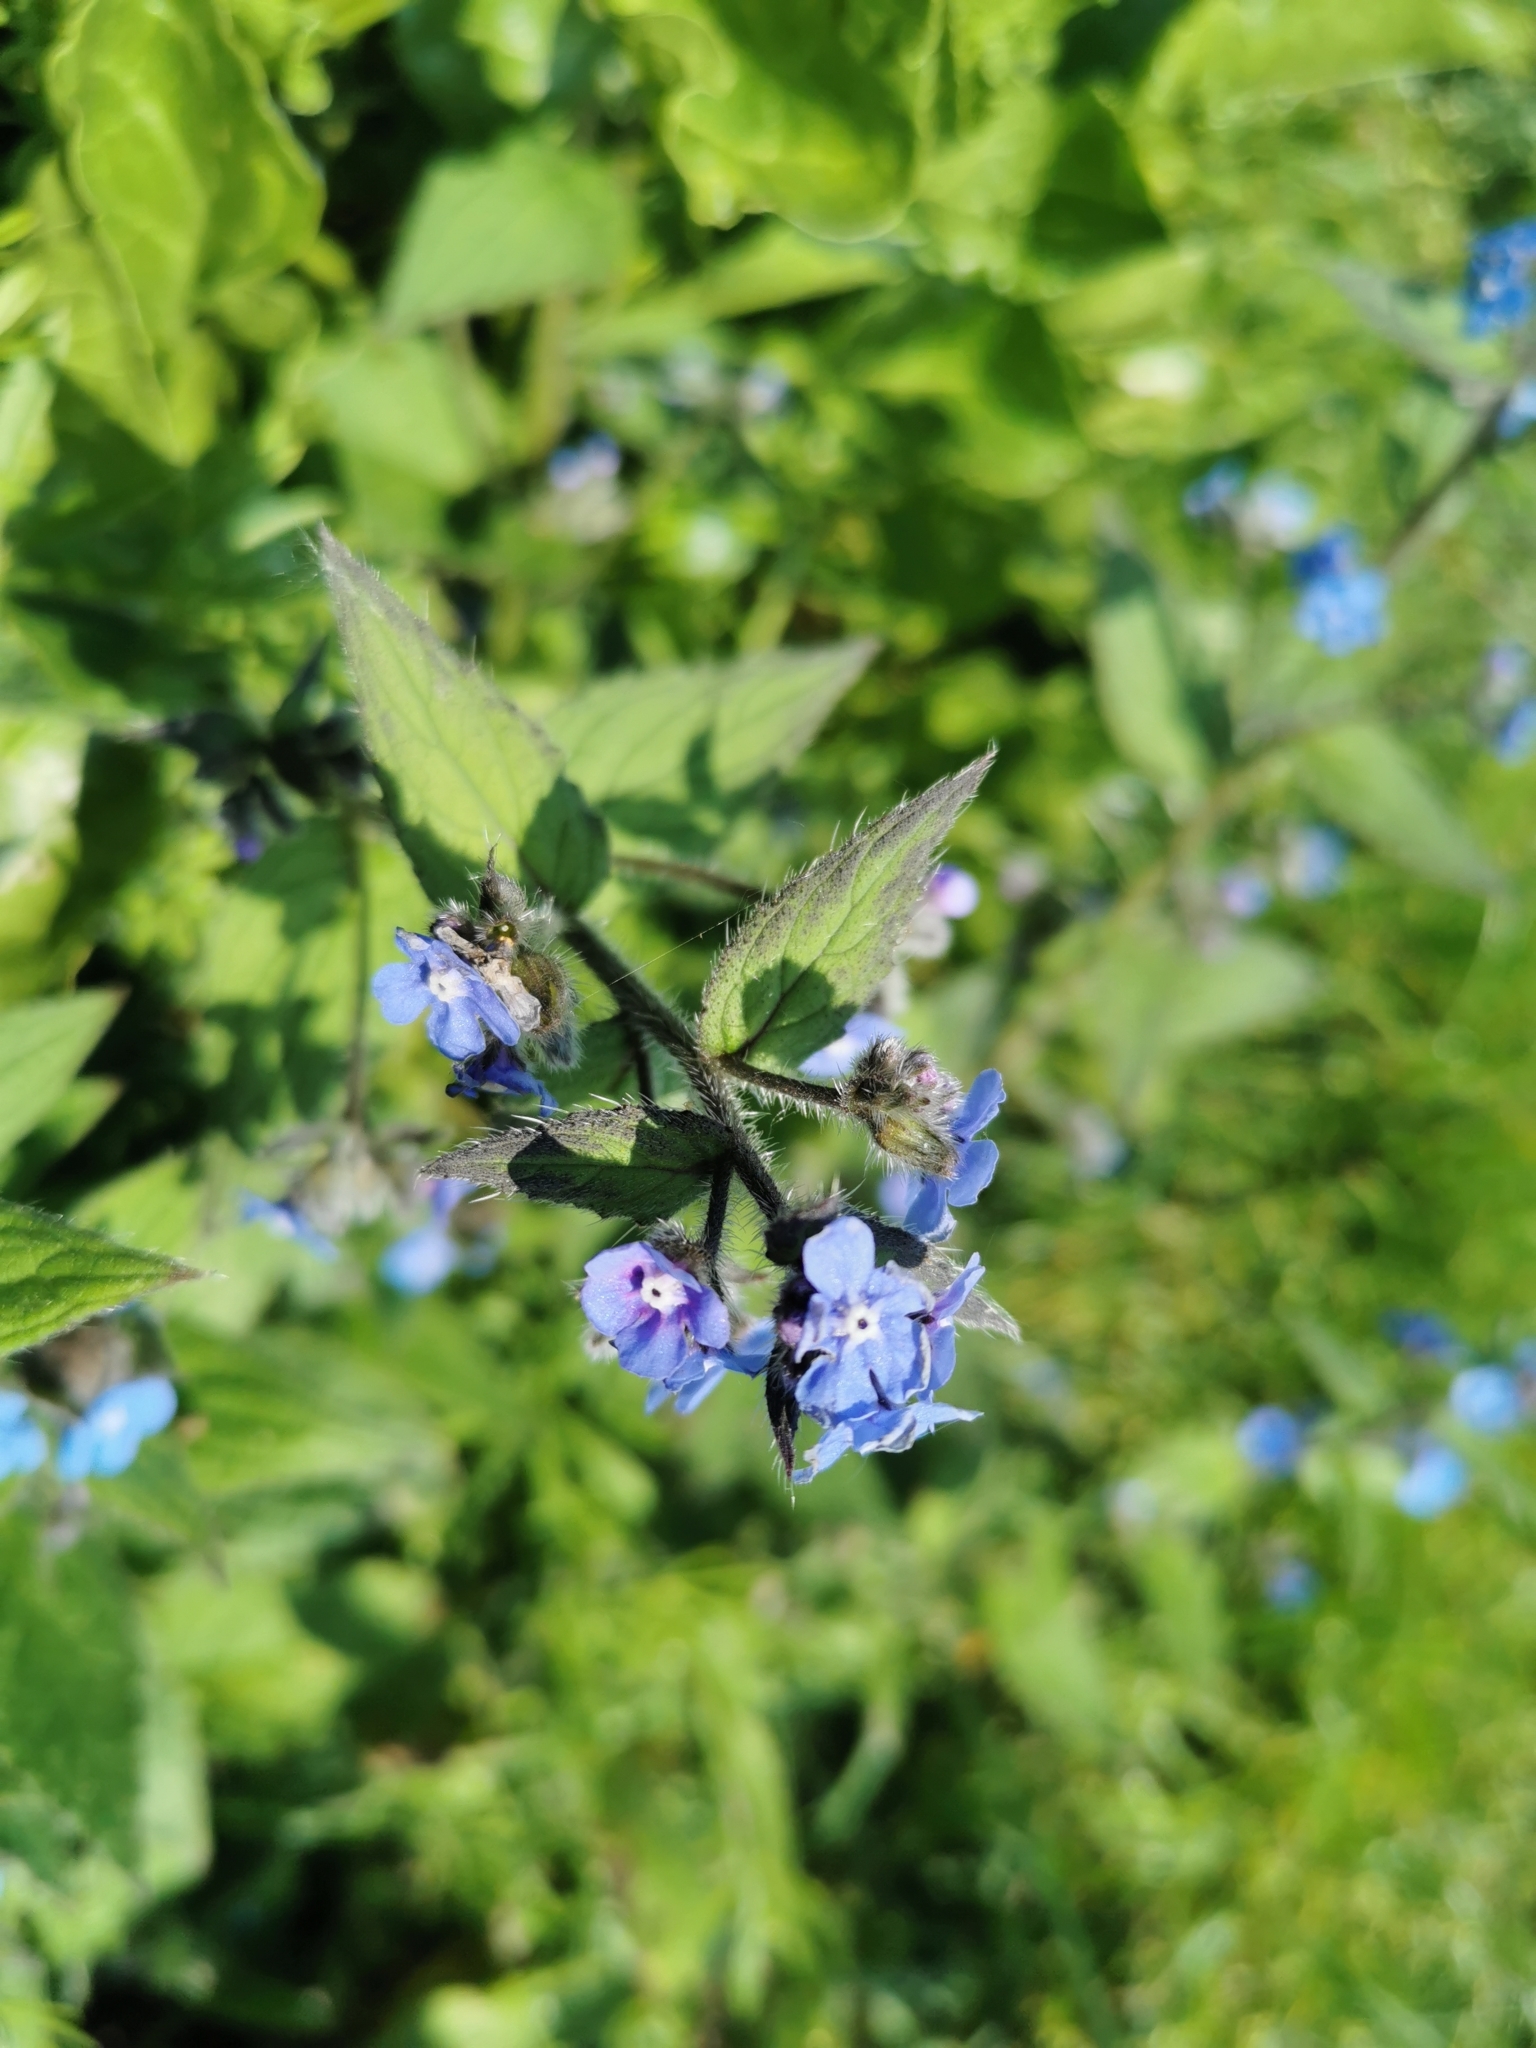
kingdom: Plantae
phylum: Tracheophyta
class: Magnoliopsida
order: Boraginales
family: Boraginaceae
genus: Pentaglottis
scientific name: Pentaglottis sempervirens
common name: Green alkanet
